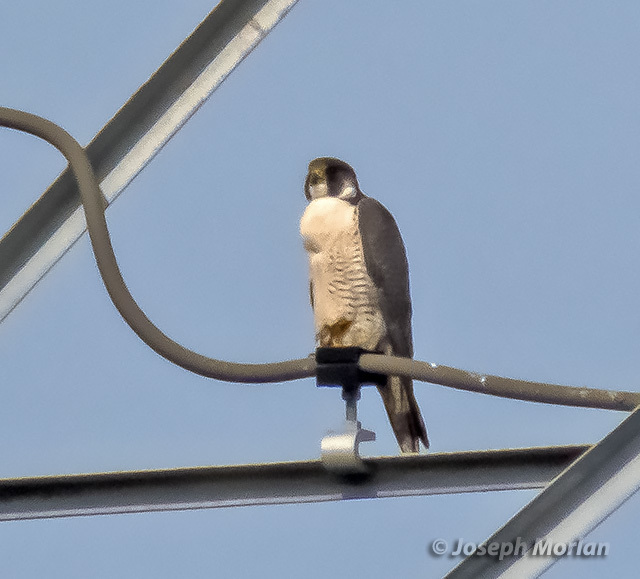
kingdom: Animalia
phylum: Chordata
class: Aves
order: Falconiformes
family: Falconidae
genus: Falco
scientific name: Falco peregrinus
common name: Peregrine falcon
